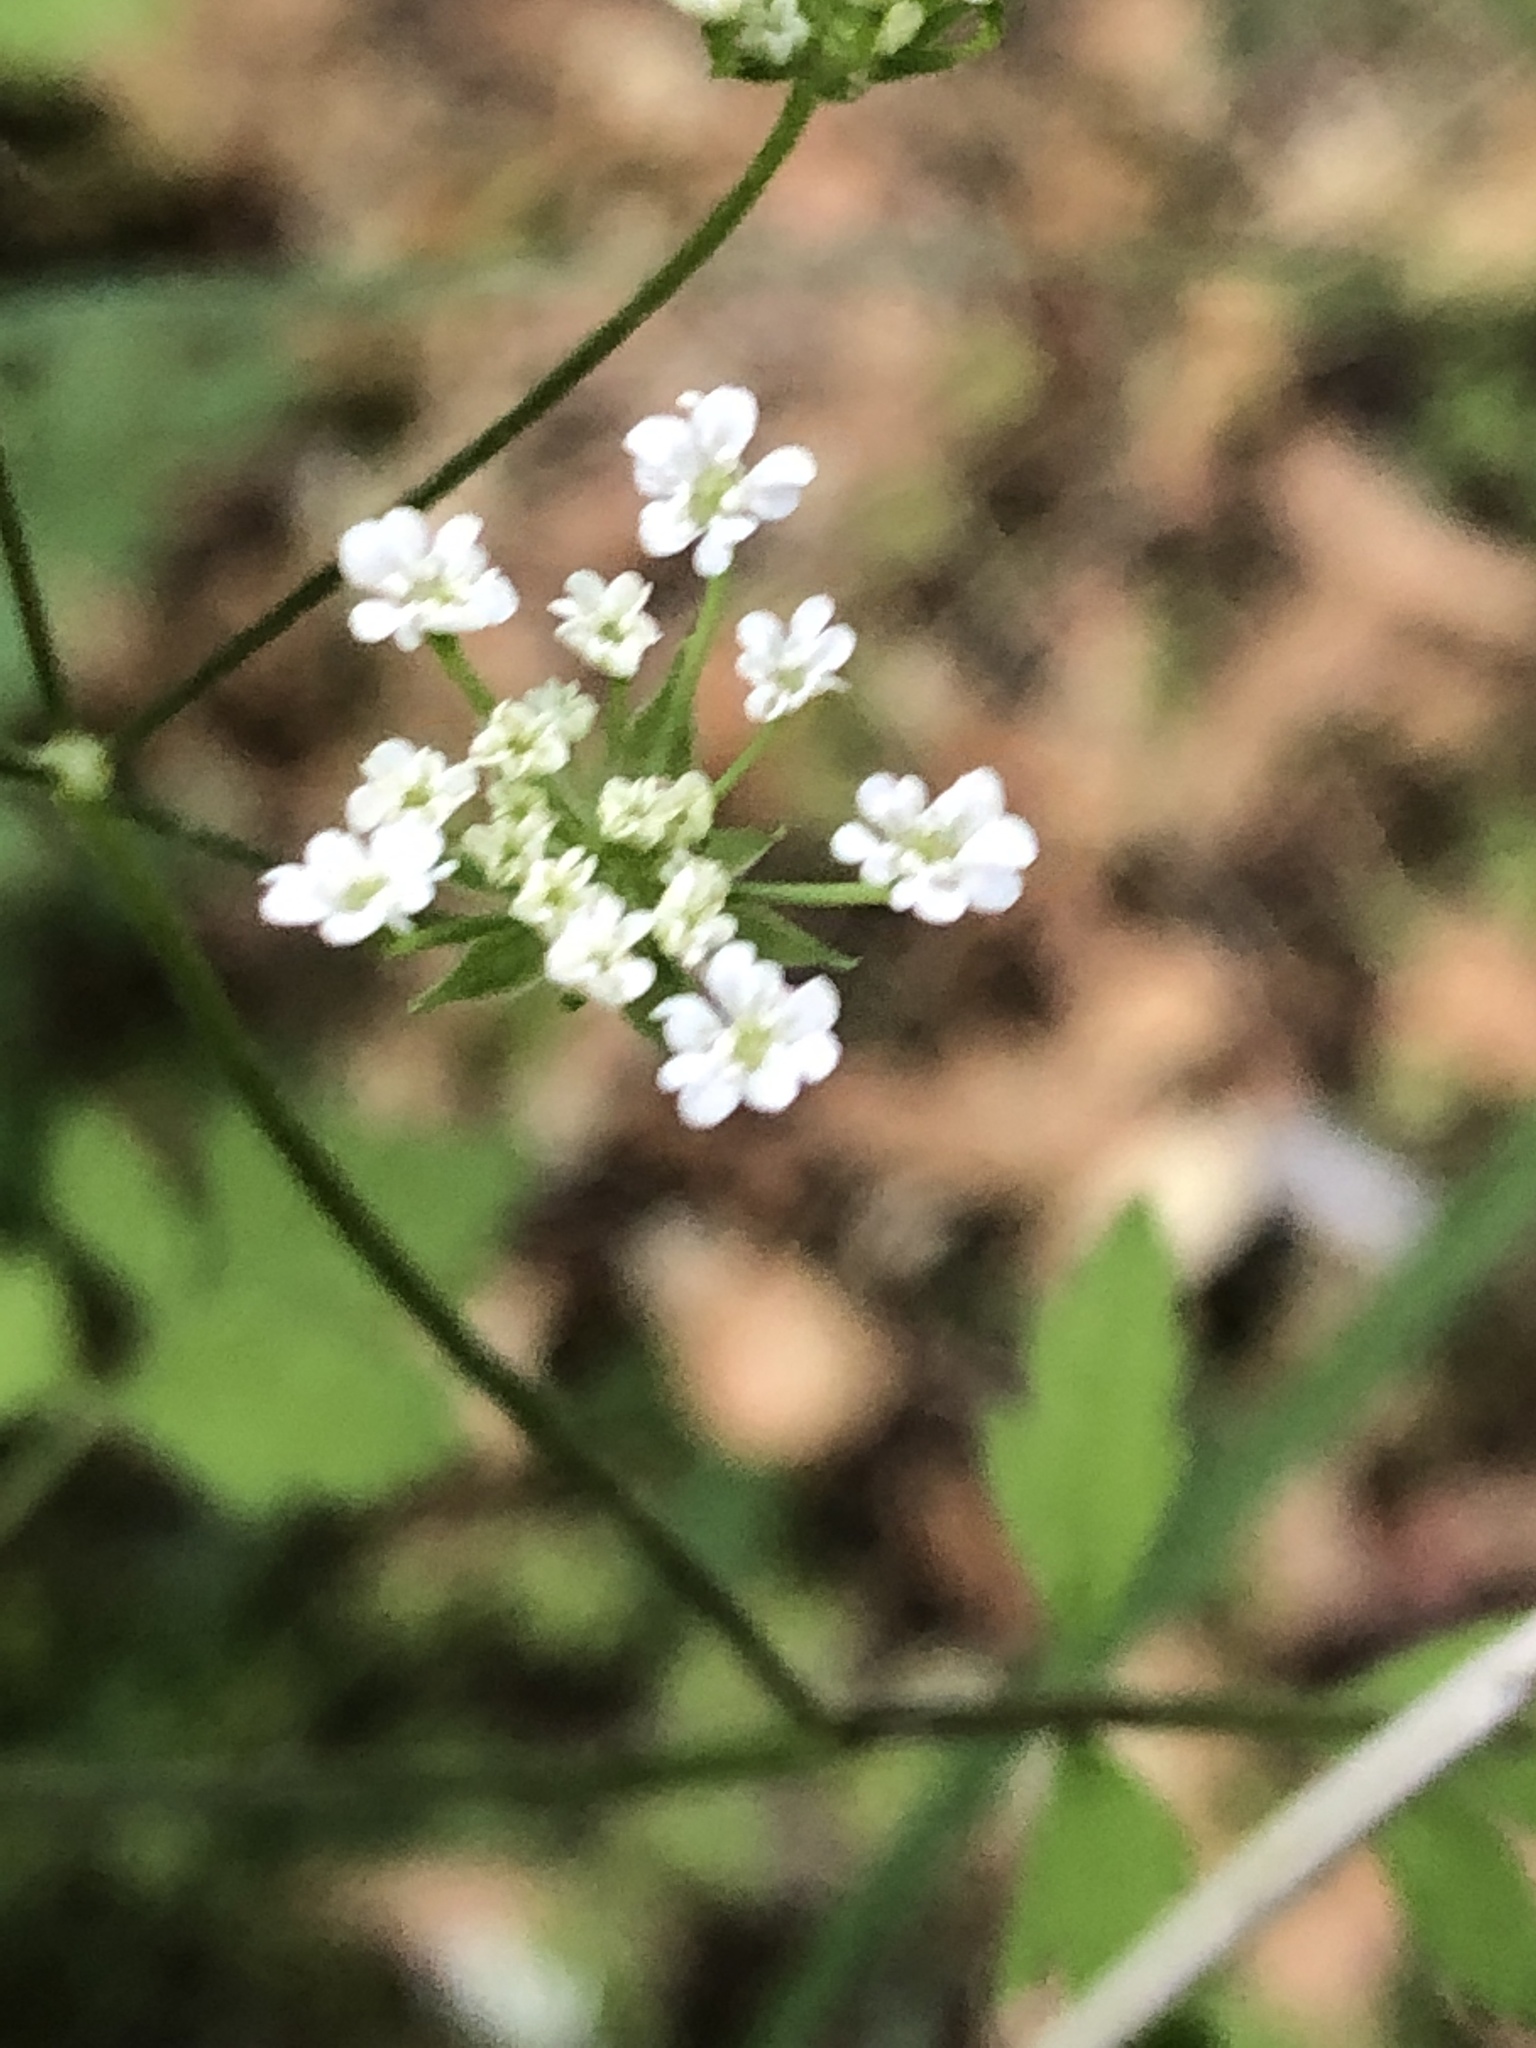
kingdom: Plantae
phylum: Tracheophyta
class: Magnoliopsida
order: Apiales
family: Apiaceae
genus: Chaerophyllum
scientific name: Chaerophyllum temulum
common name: Rough chervil
